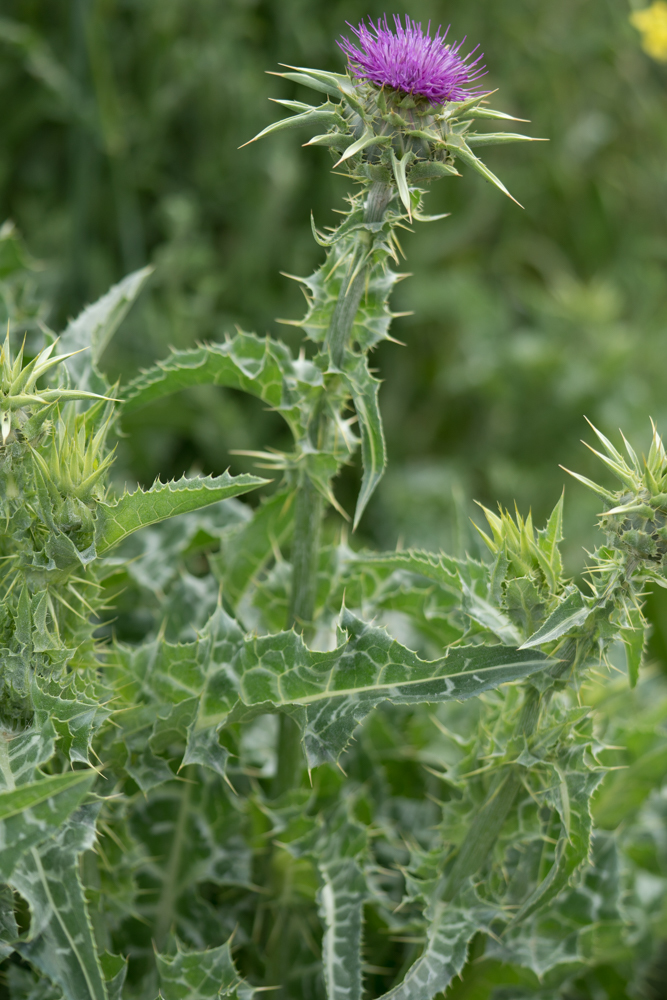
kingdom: Plantae
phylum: Tracheophyta
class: Magnoliopsida
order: Asterales
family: Asteraceae
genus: Silybum
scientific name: Silybum marianum
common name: Milk thistle
